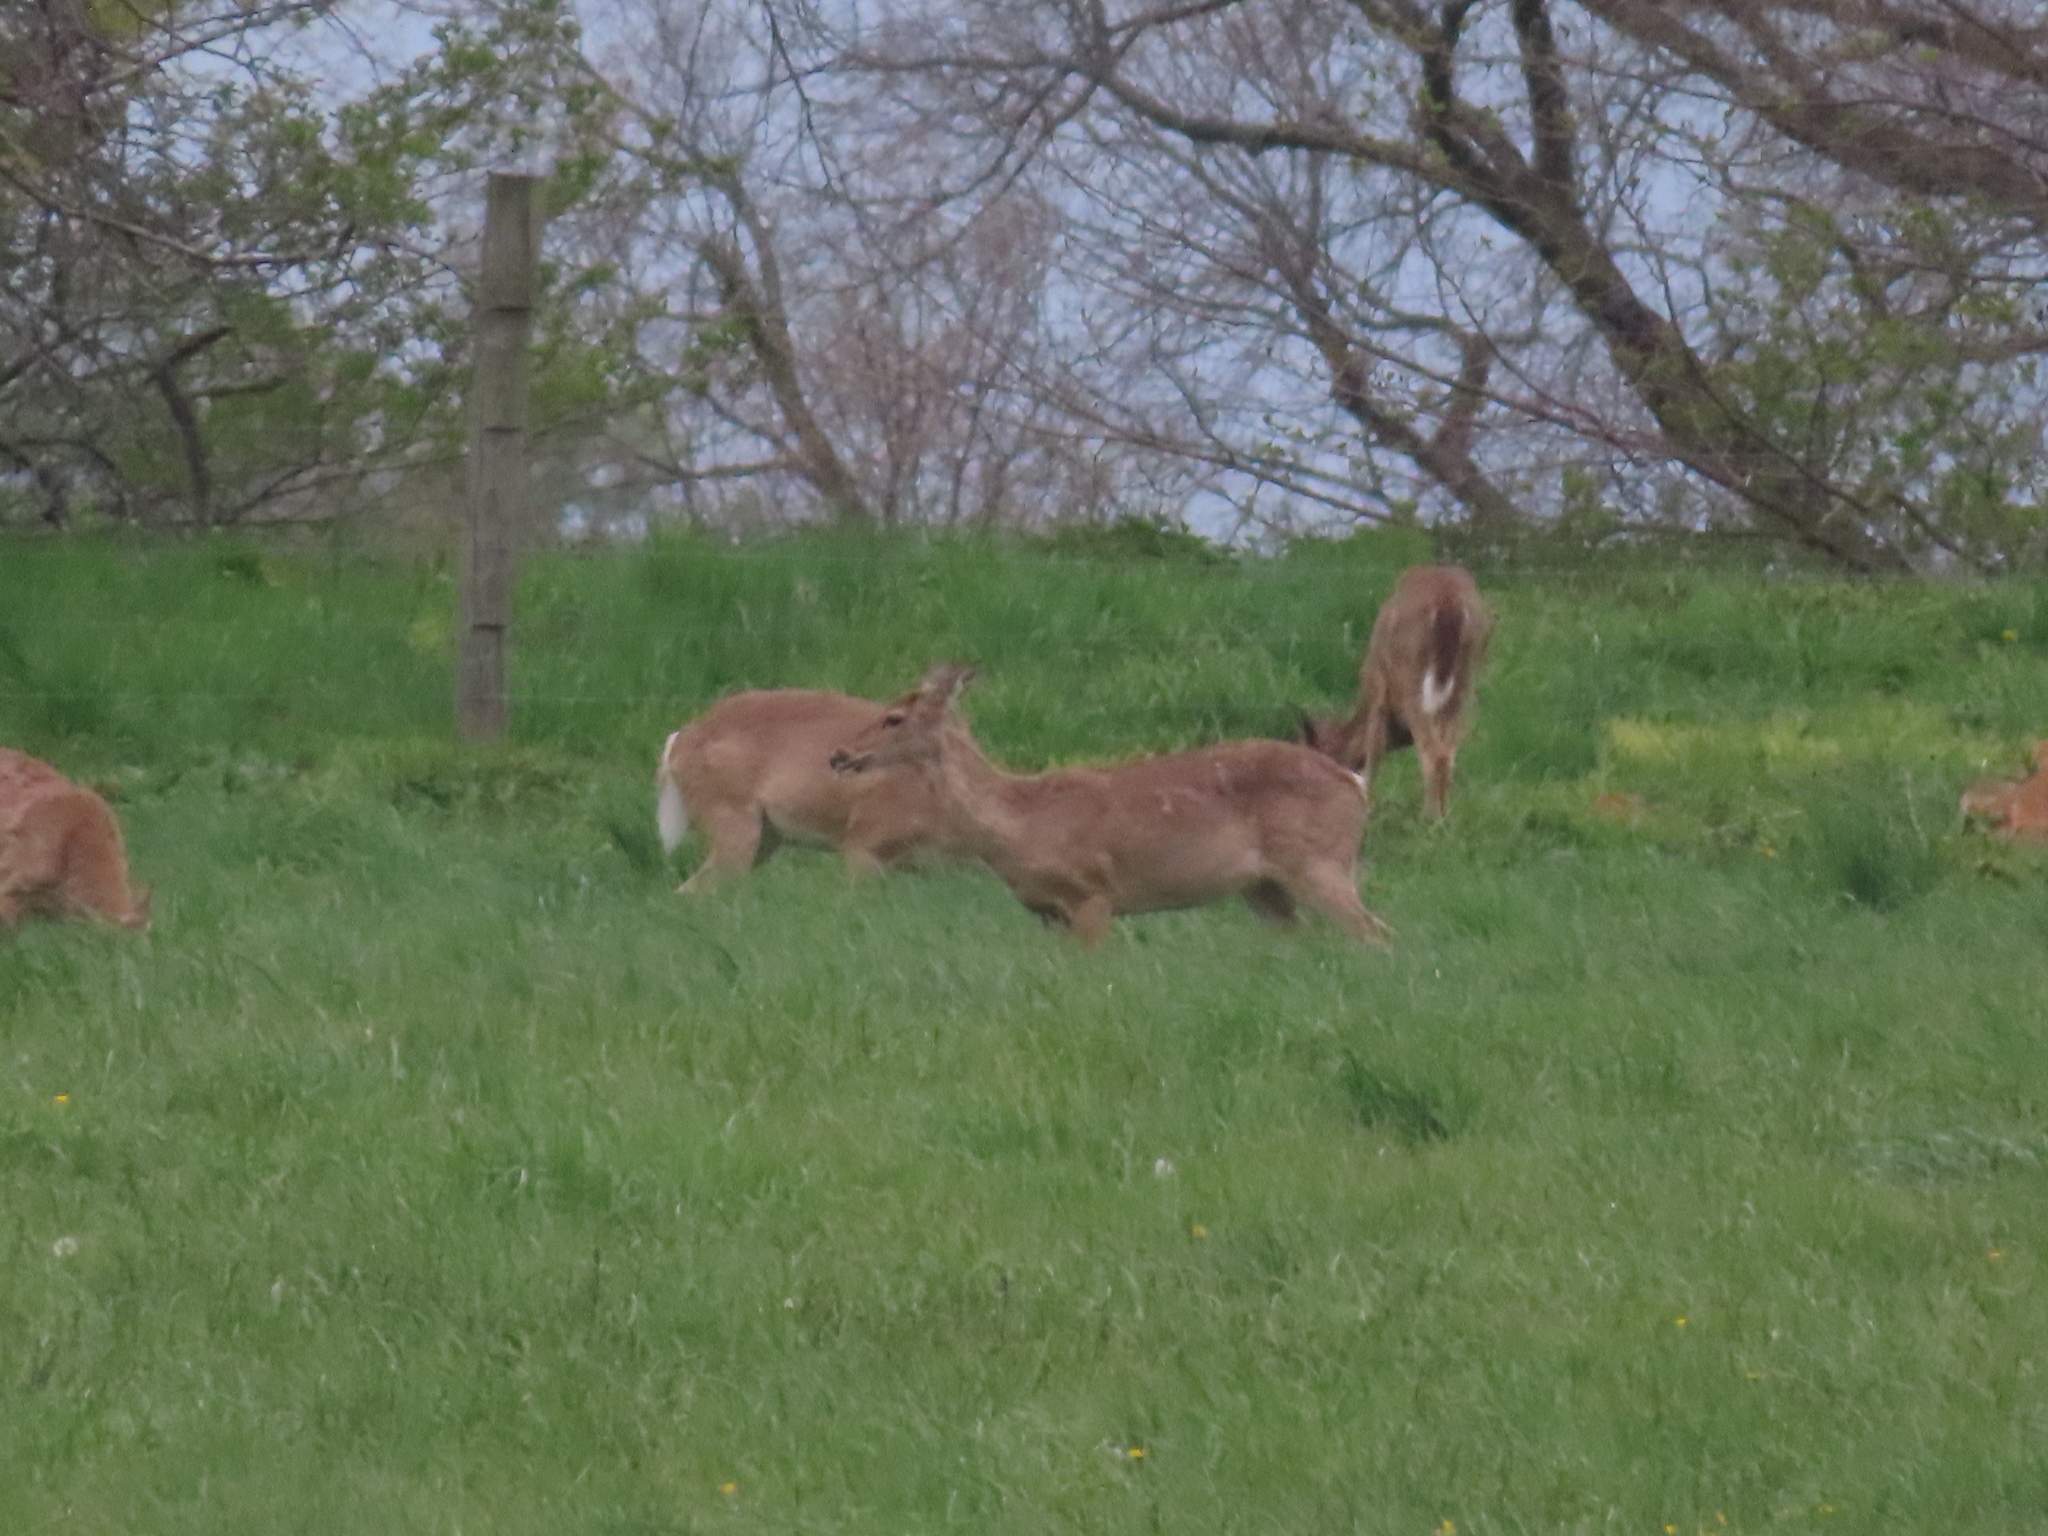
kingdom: Animalia
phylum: Chordata
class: Mammalia
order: Artiodactyla
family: Cervidae
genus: Odocoileus
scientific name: Odocoileus virginianus
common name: White-tailed deer
